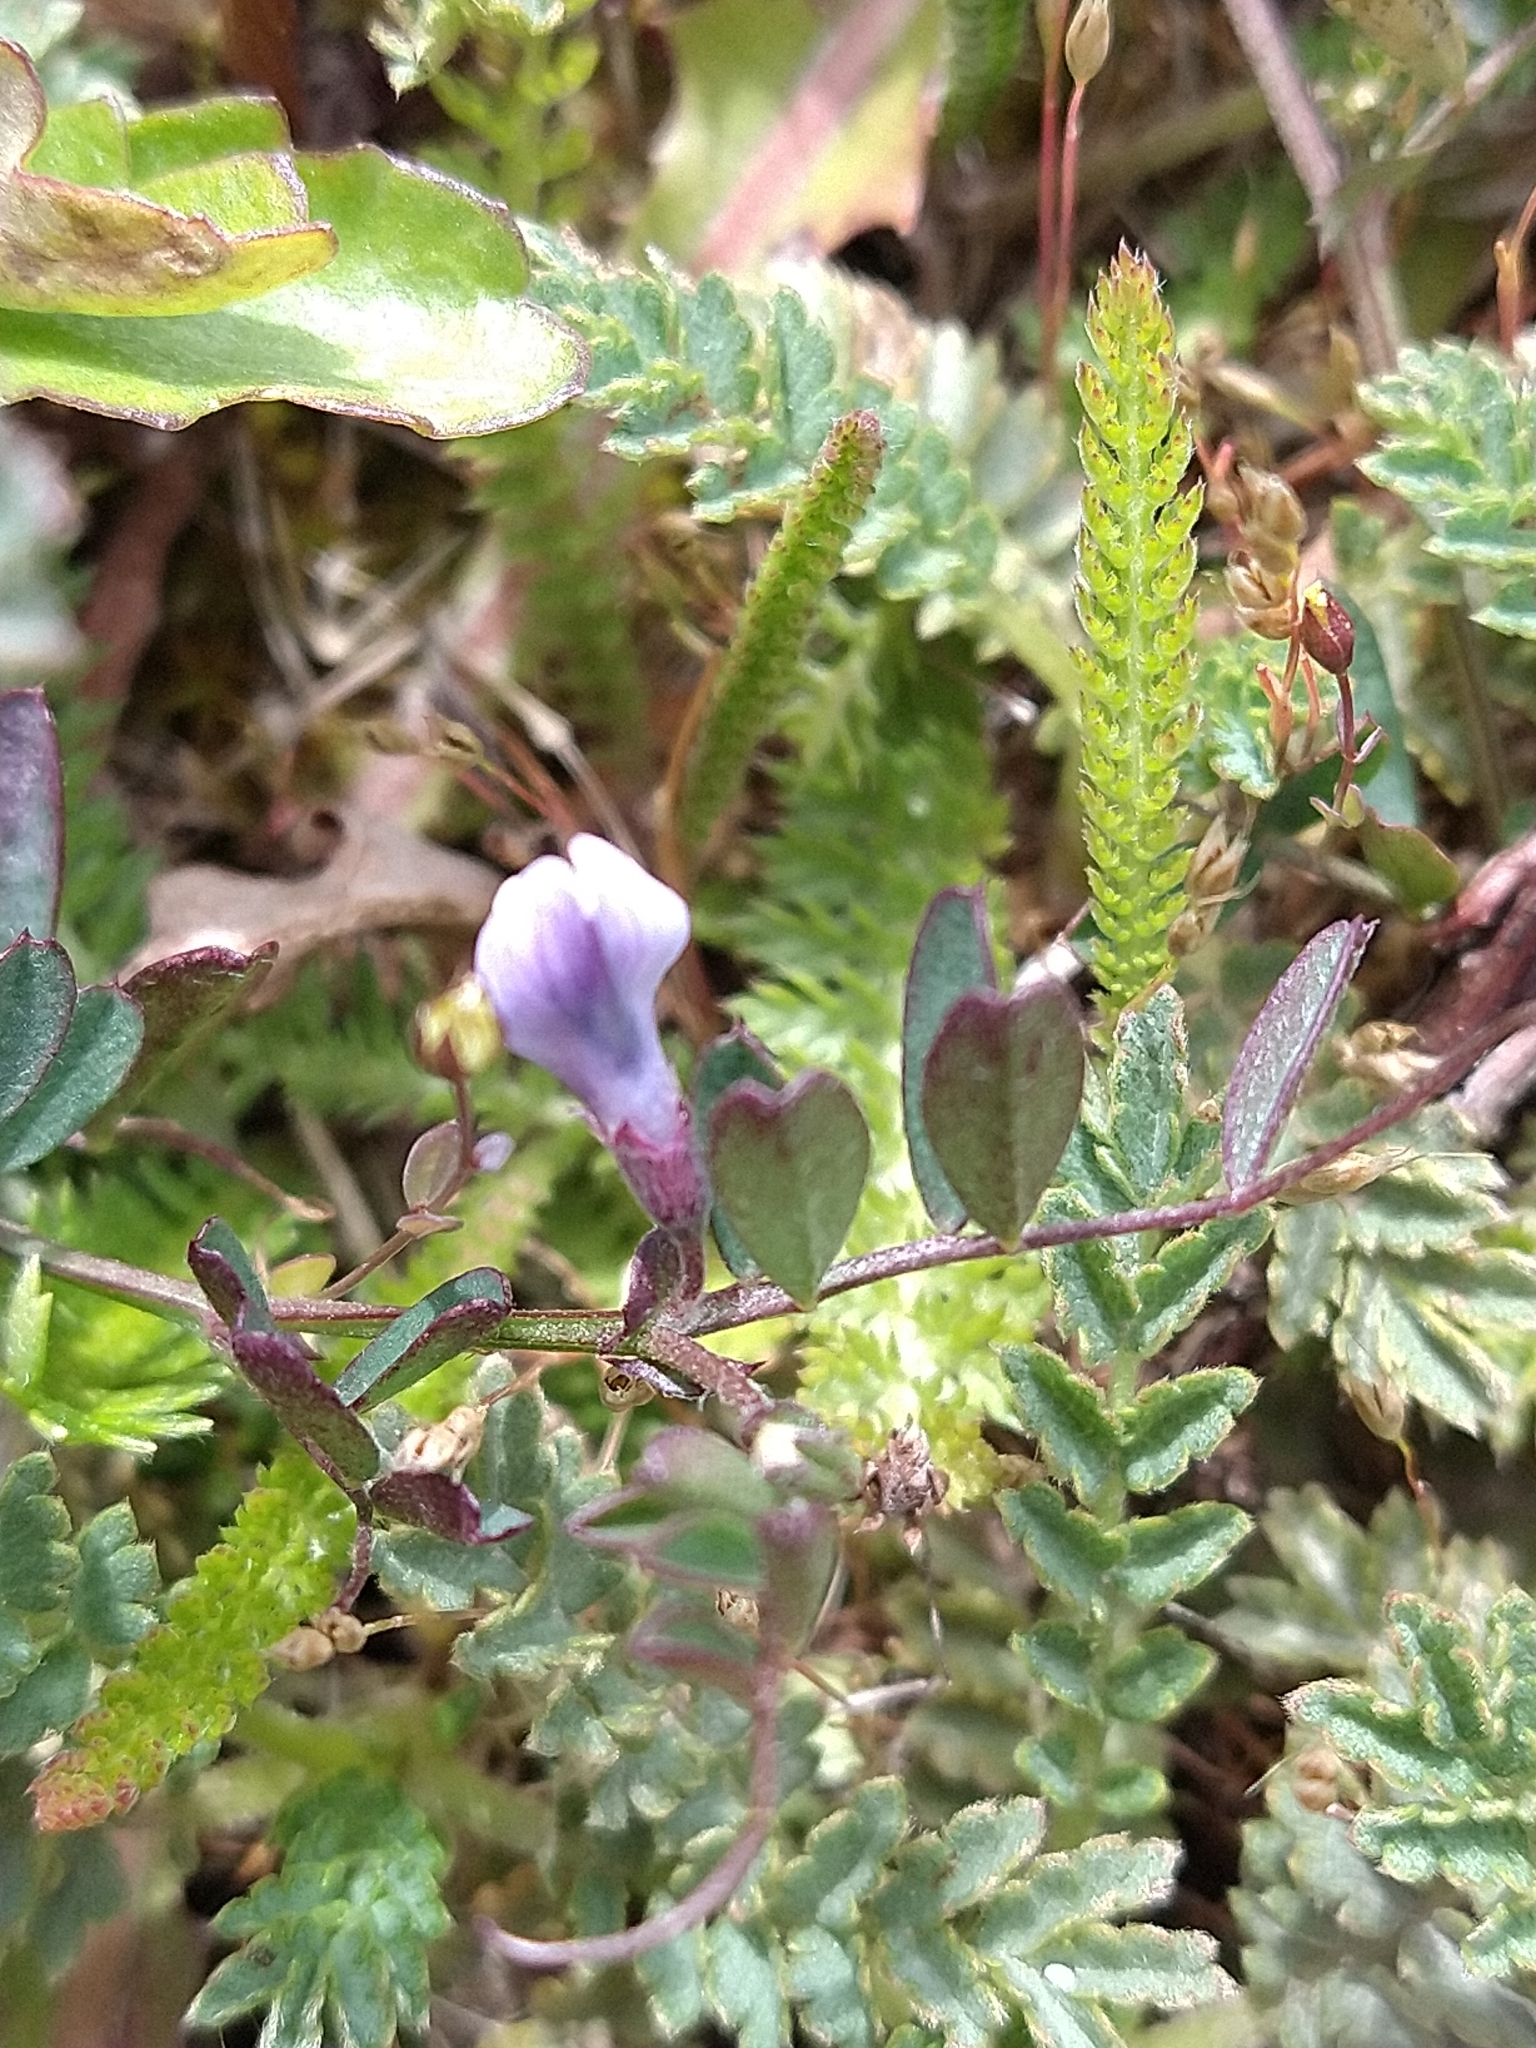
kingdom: Plantae
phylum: Tracheophyta
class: Magnoliopsida
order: Fabales
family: Fabaceae
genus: Vicia
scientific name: Vicia magellanica
